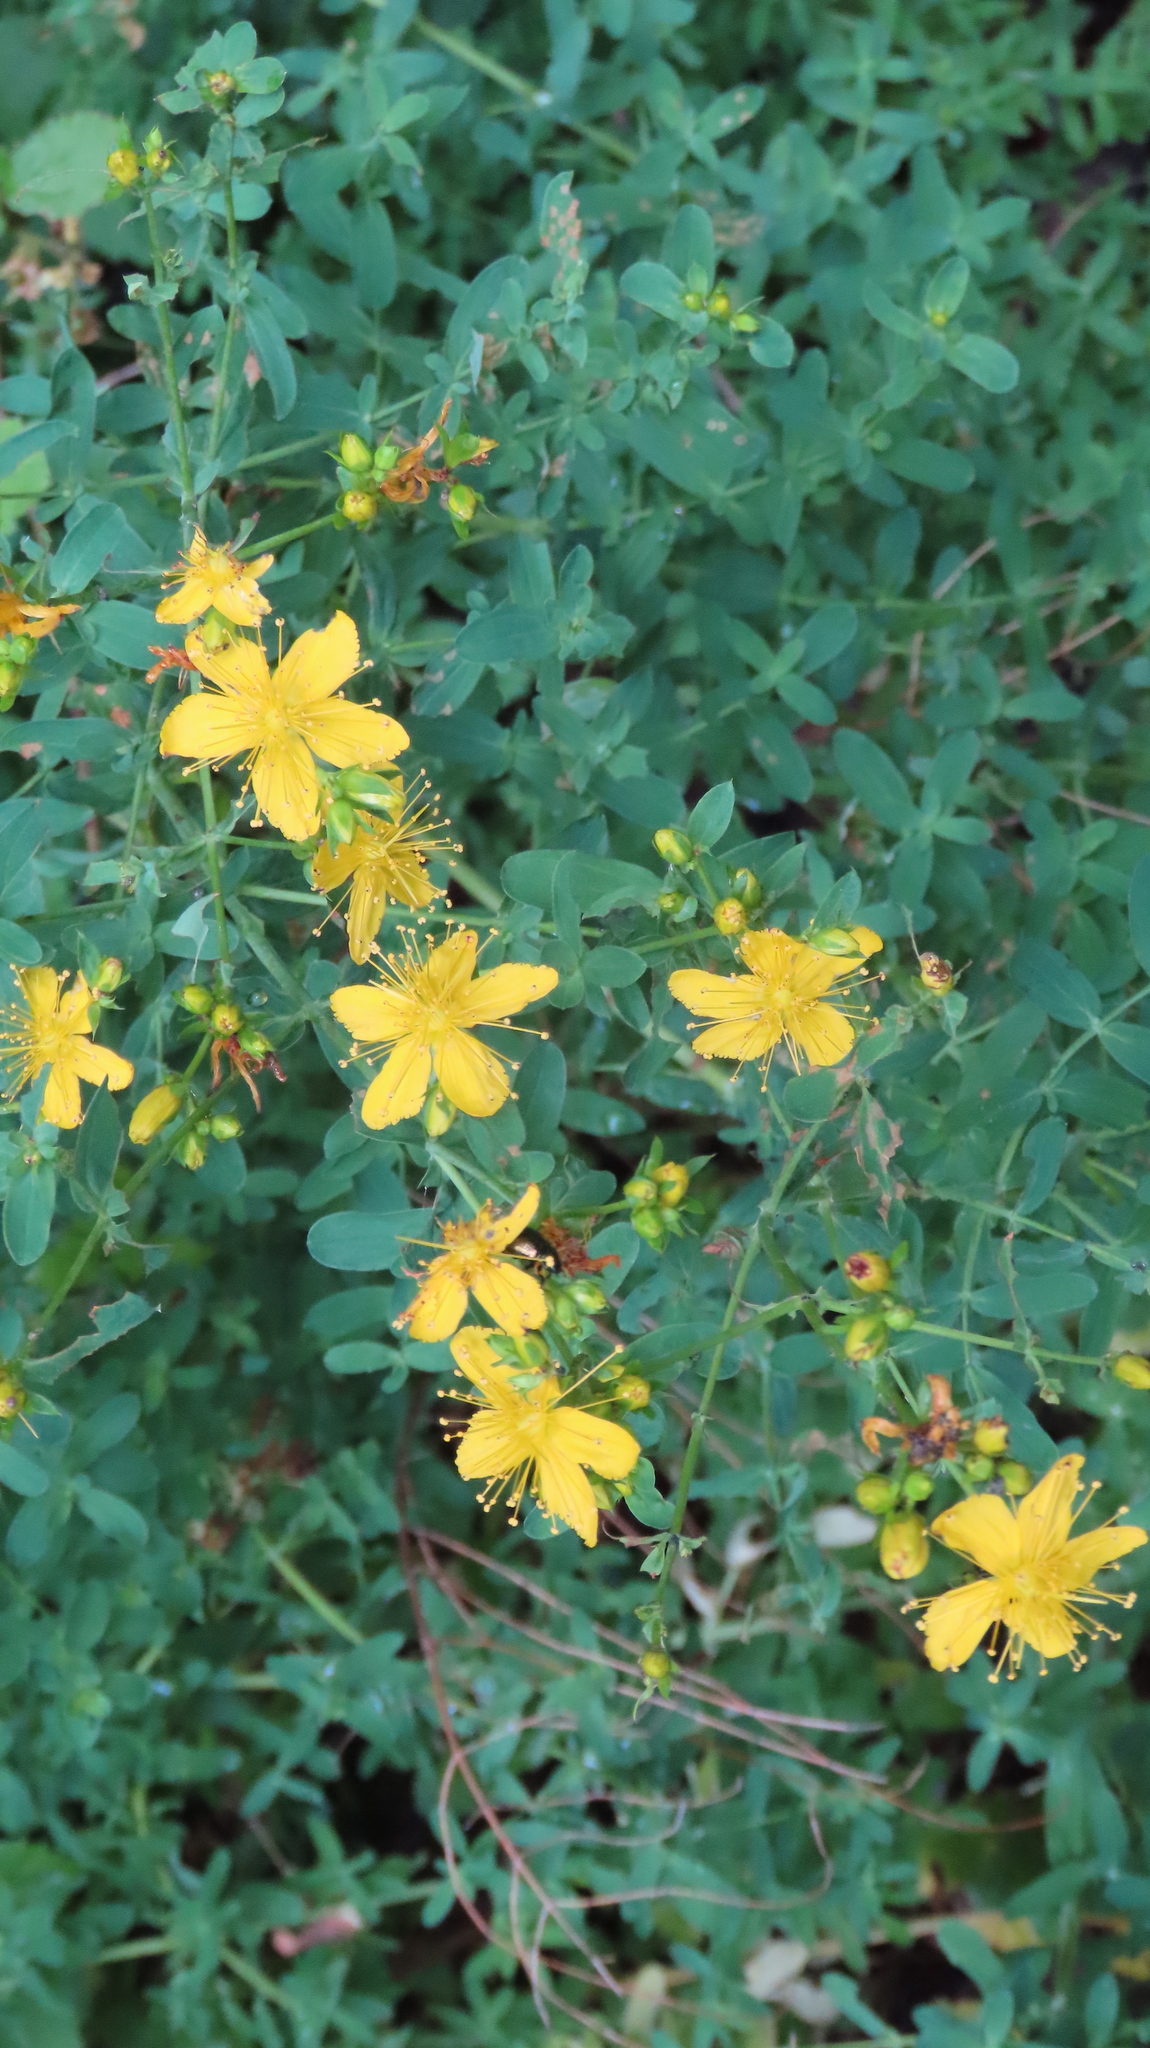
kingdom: Plantae
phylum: Tracheophyta
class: Magnoliopsida
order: Malpighiales
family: Hypericaceae
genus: Hypericum
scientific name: Hypericum perforatum
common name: Common st. johnswort
